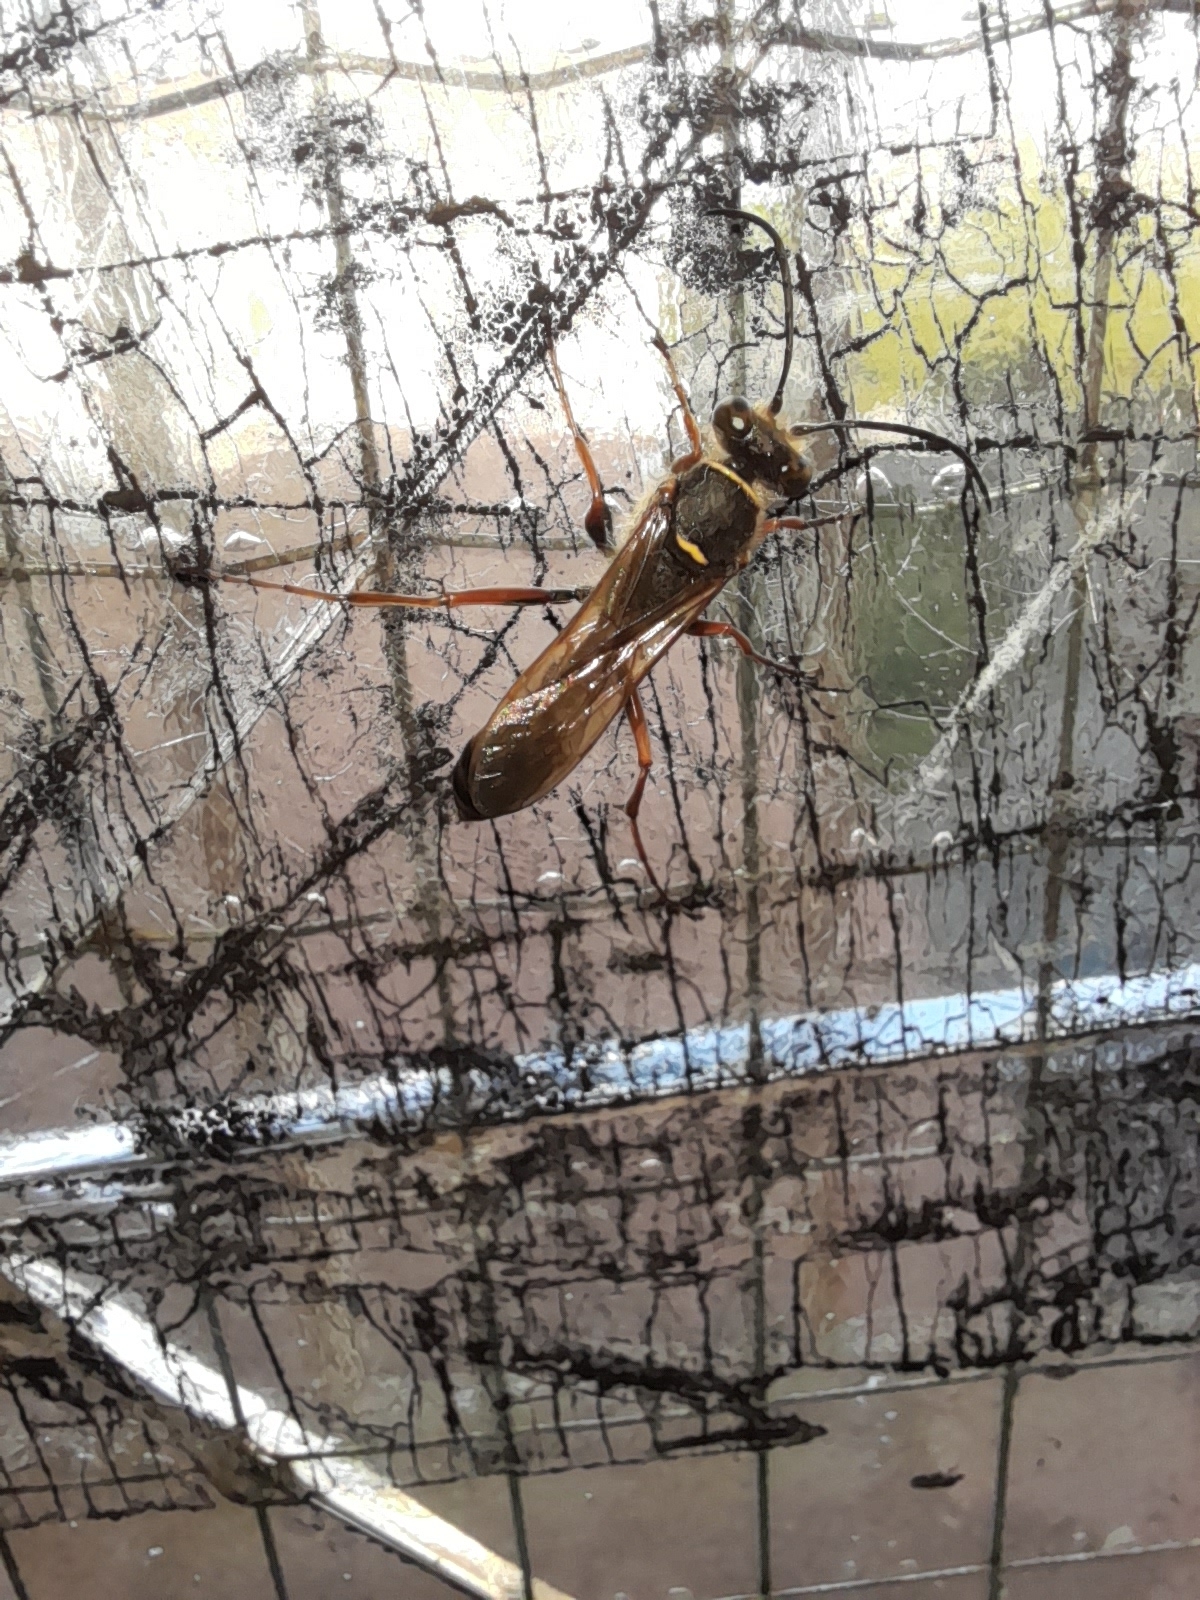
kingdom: Animalia
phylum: Arthropoda
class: Insecta
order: Hymenoptera
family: Sphecidae
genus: Sceliphron
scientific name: Sceliphron curvatum
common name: Pèlopèe
